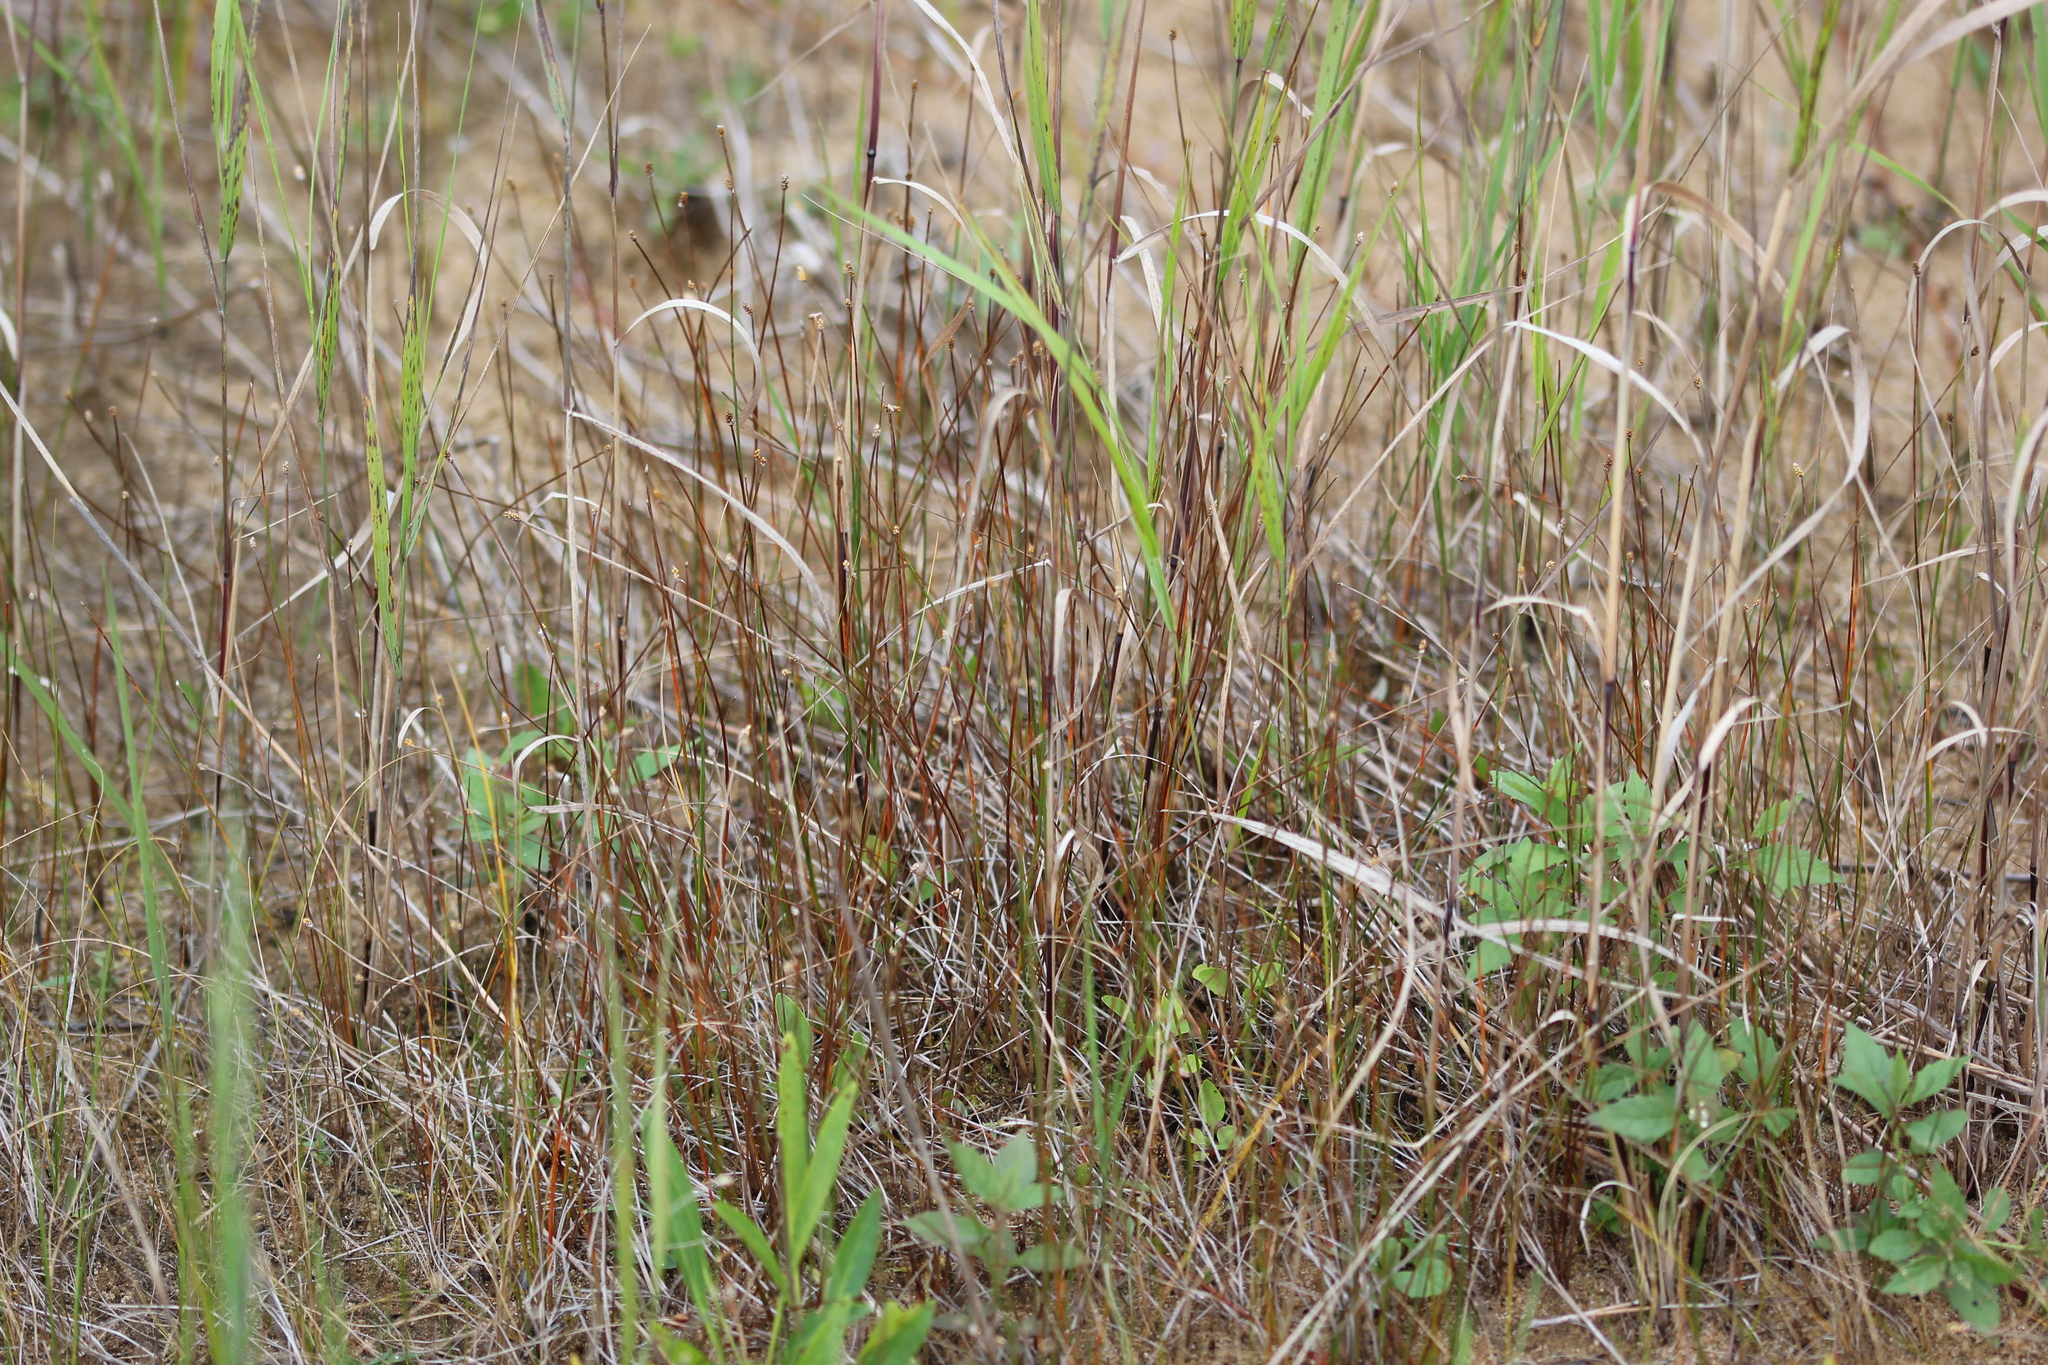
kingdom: Plantae
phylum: Tracheophyta
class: Liliopsida
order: Poales
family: Cyperaceae
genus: Eleocharis
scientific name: Eleocharis elliptica
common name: Capitate spikerush
